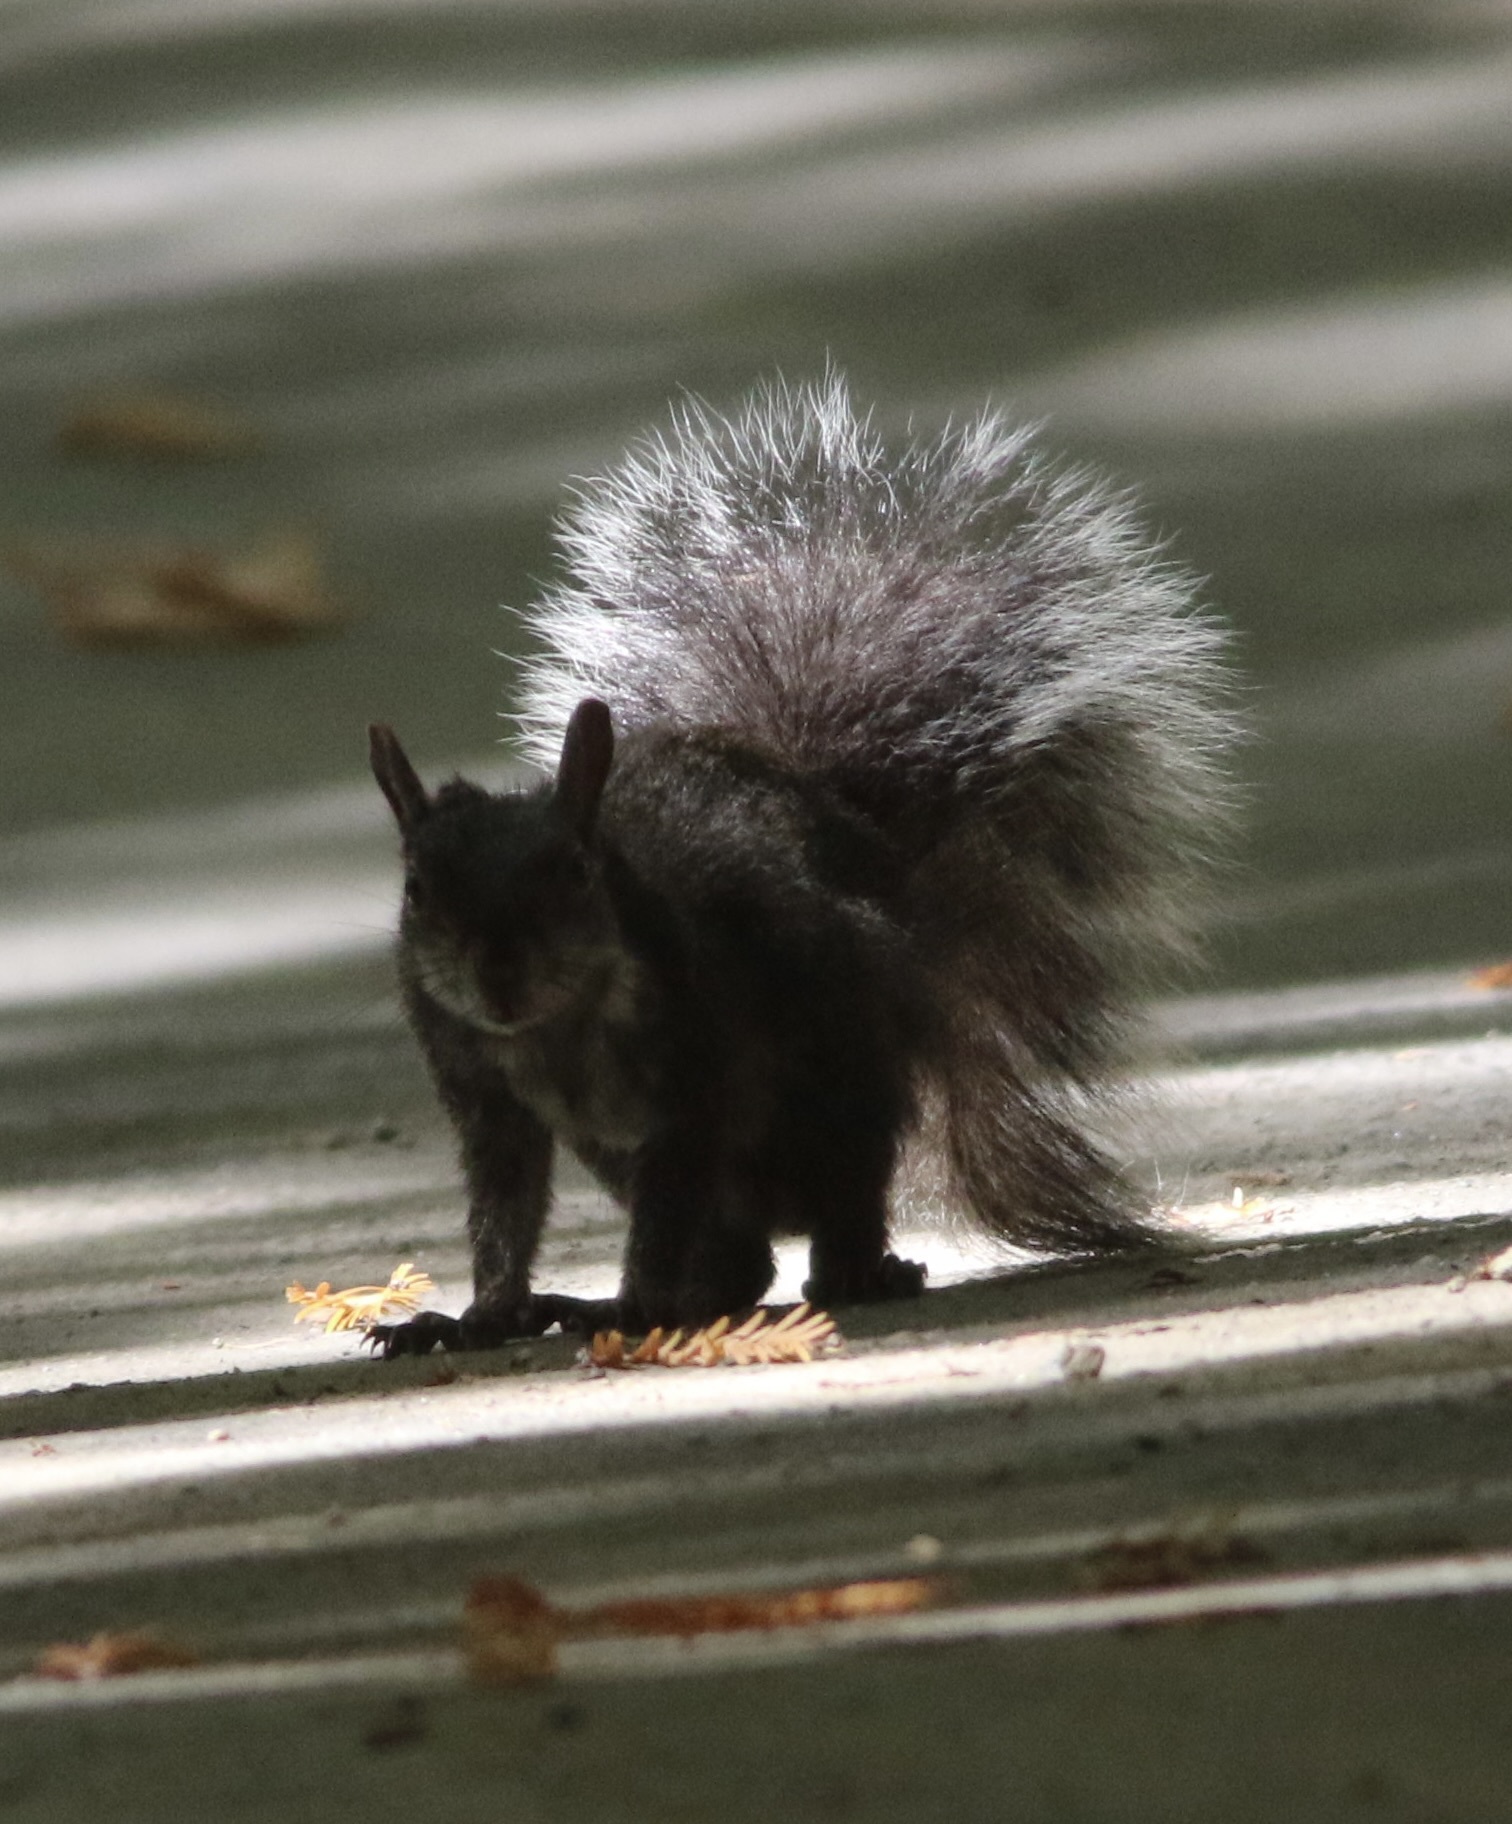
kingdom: Animalia
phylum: Chordata
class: Mammalia
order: Rodentia
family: Sciuridae
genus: Sciurus
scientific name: Sciurus griseus
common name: Western gray squirrel
